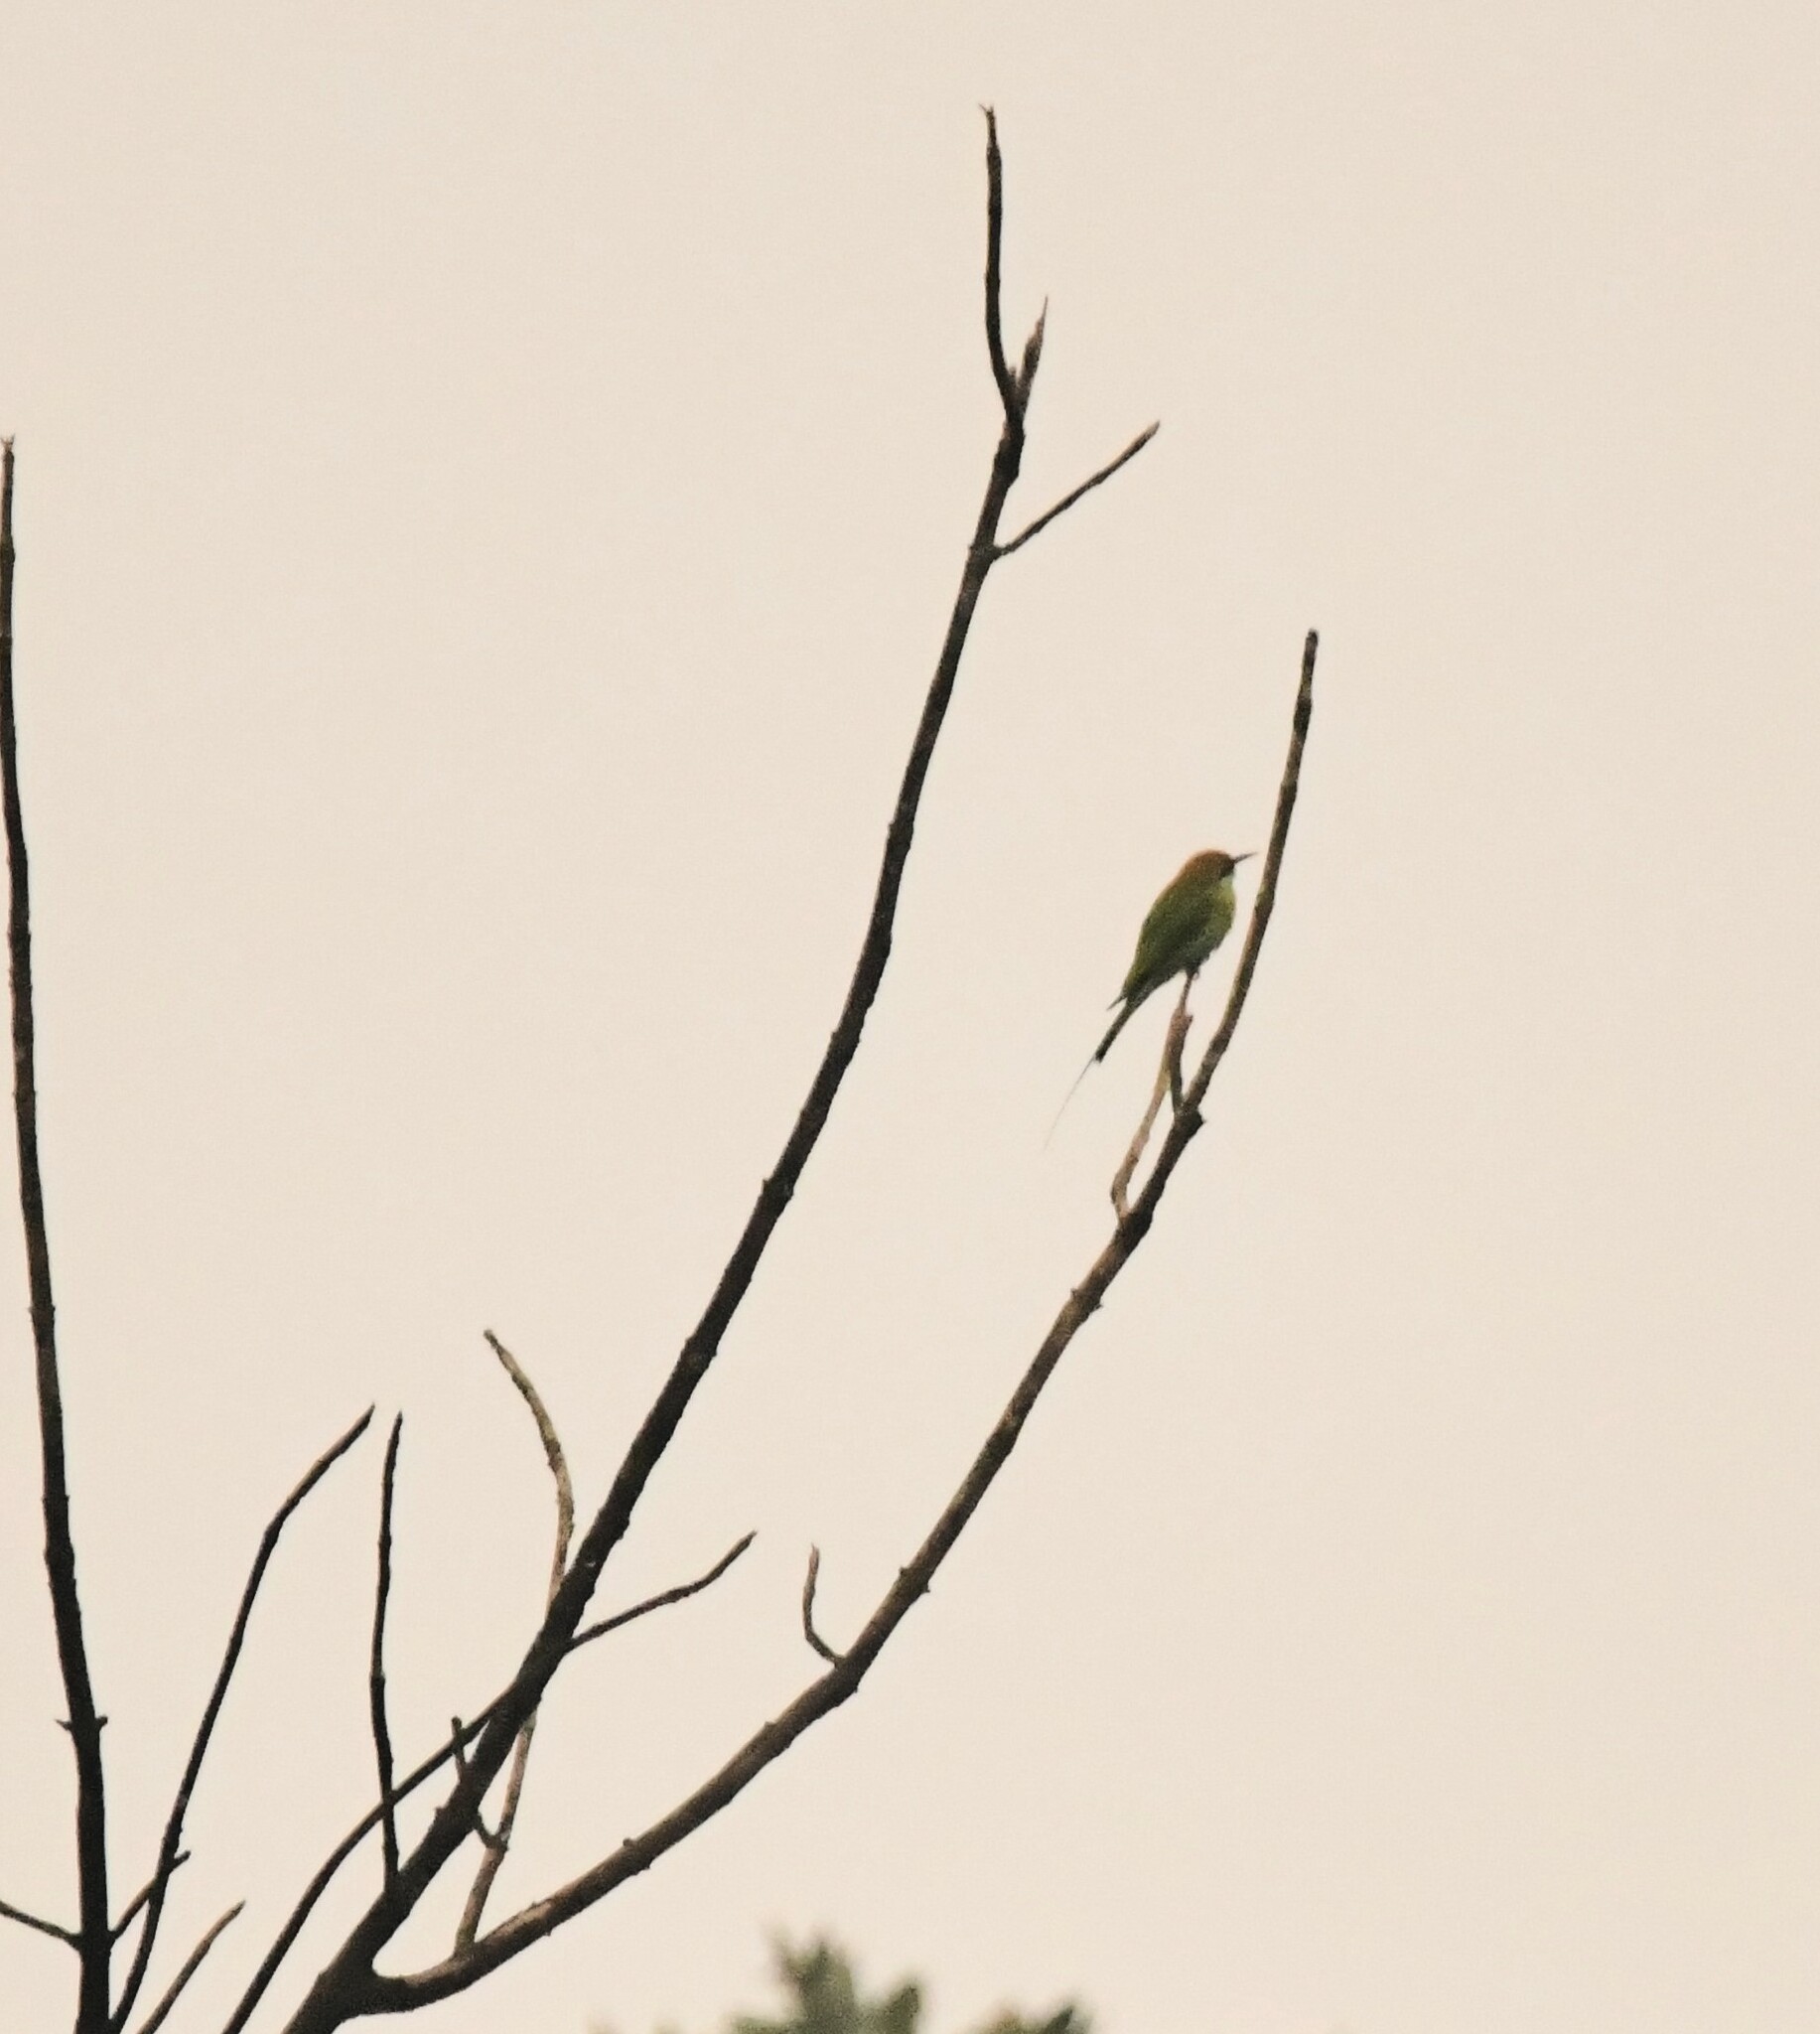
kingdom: Animalia
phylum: Chordata
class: Aves
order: Coraciiformes
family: Meropidae
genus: Merops
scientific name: Merops orientalis
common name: Green bee-eater
